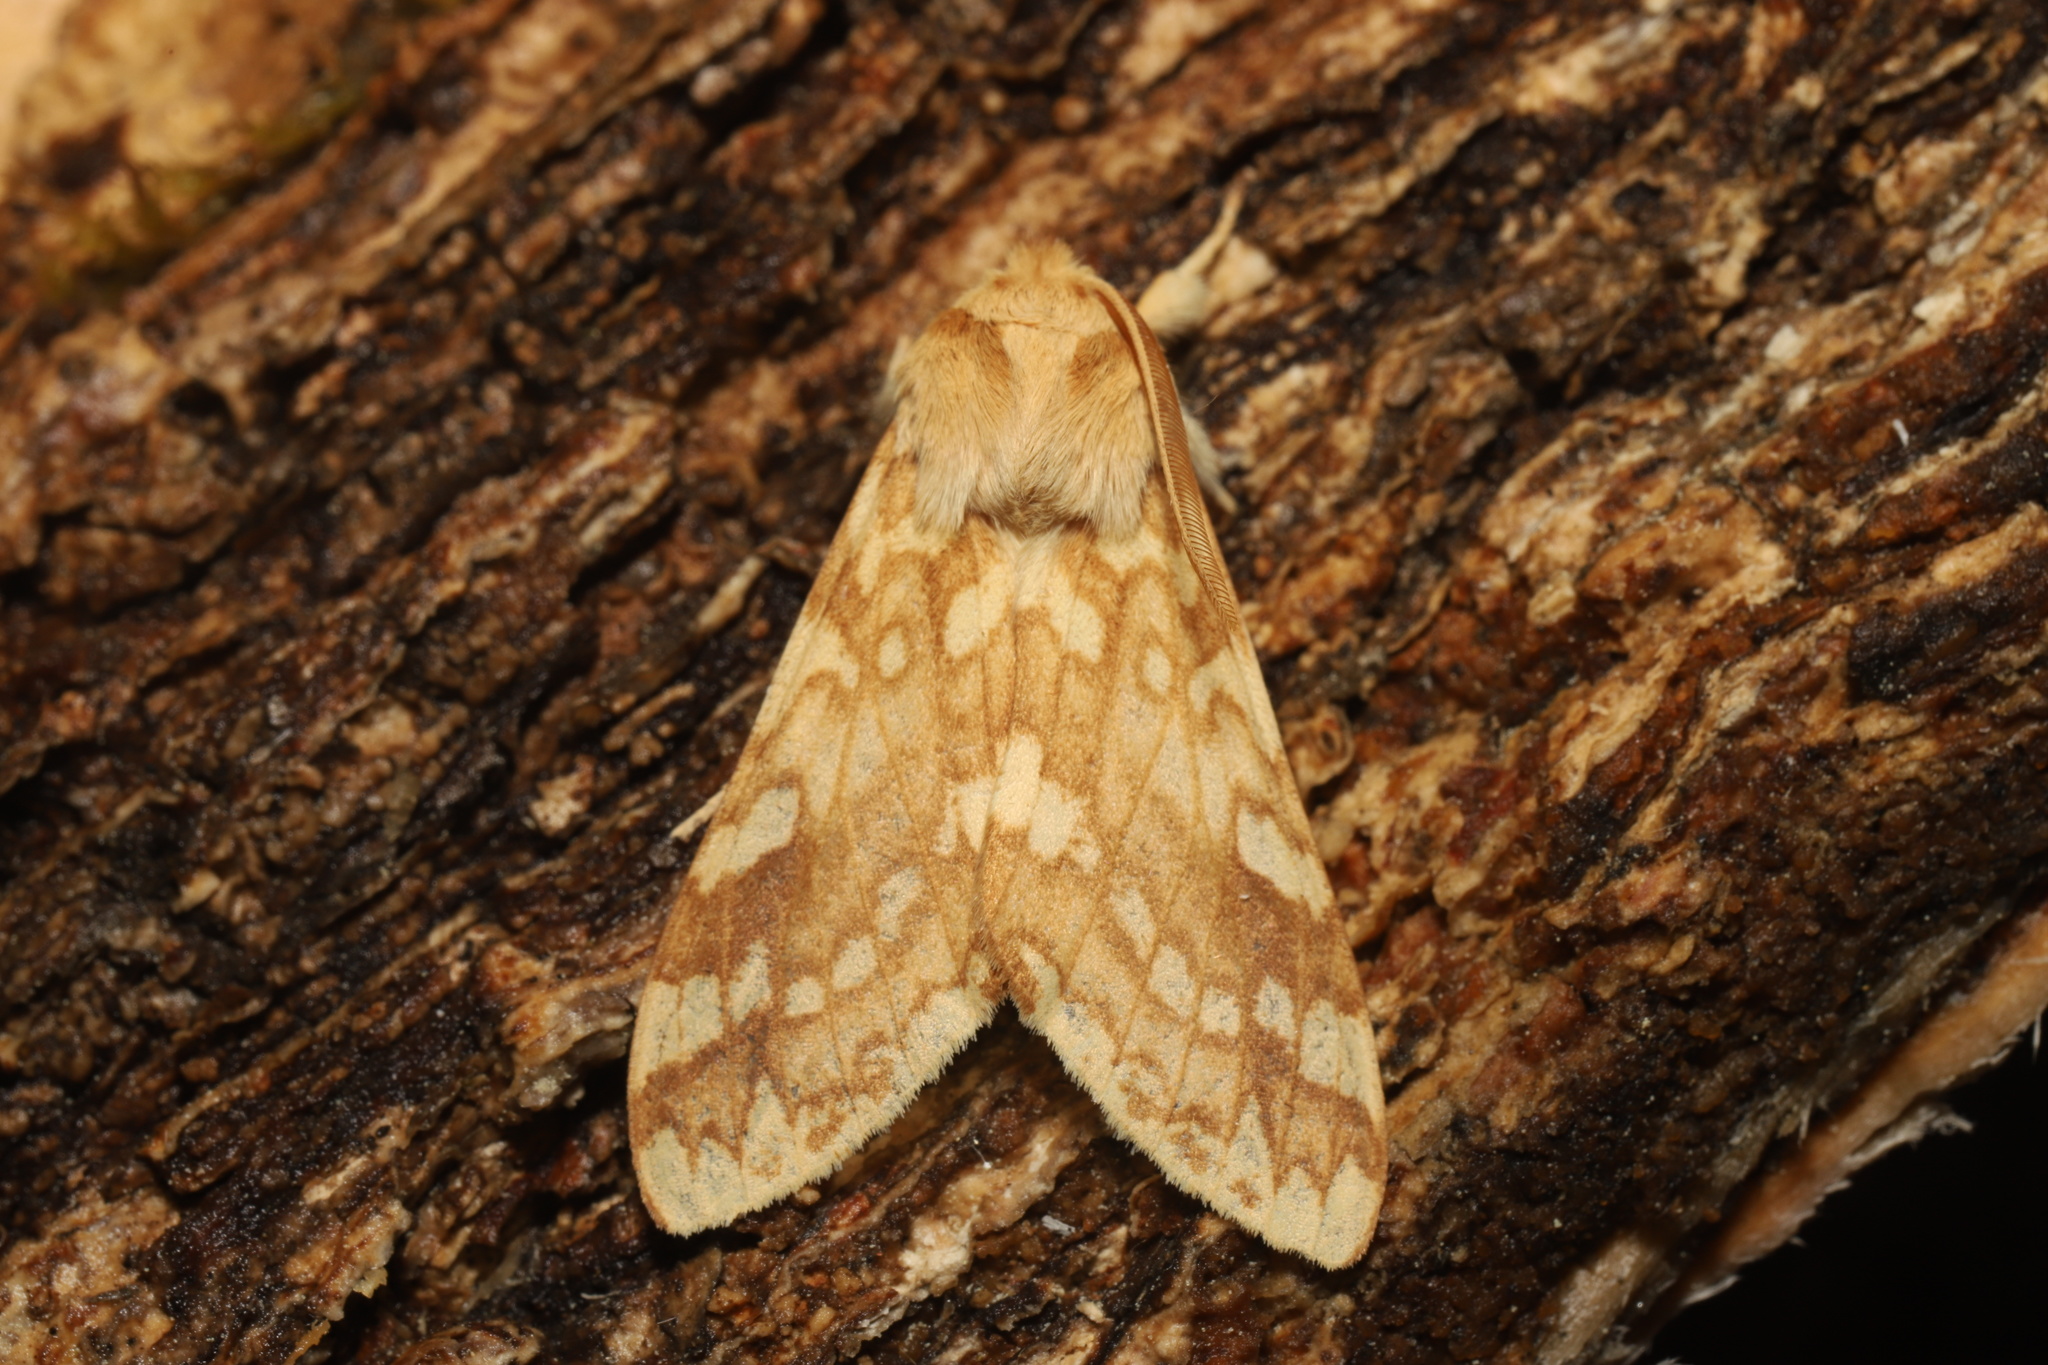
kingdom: Animalia
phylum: Arthropoda
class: Insecta
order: Lepidoptera
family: Erebidae
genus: Lophocampa
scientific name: Lophocampa maculata
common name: Spotted tussock moth
